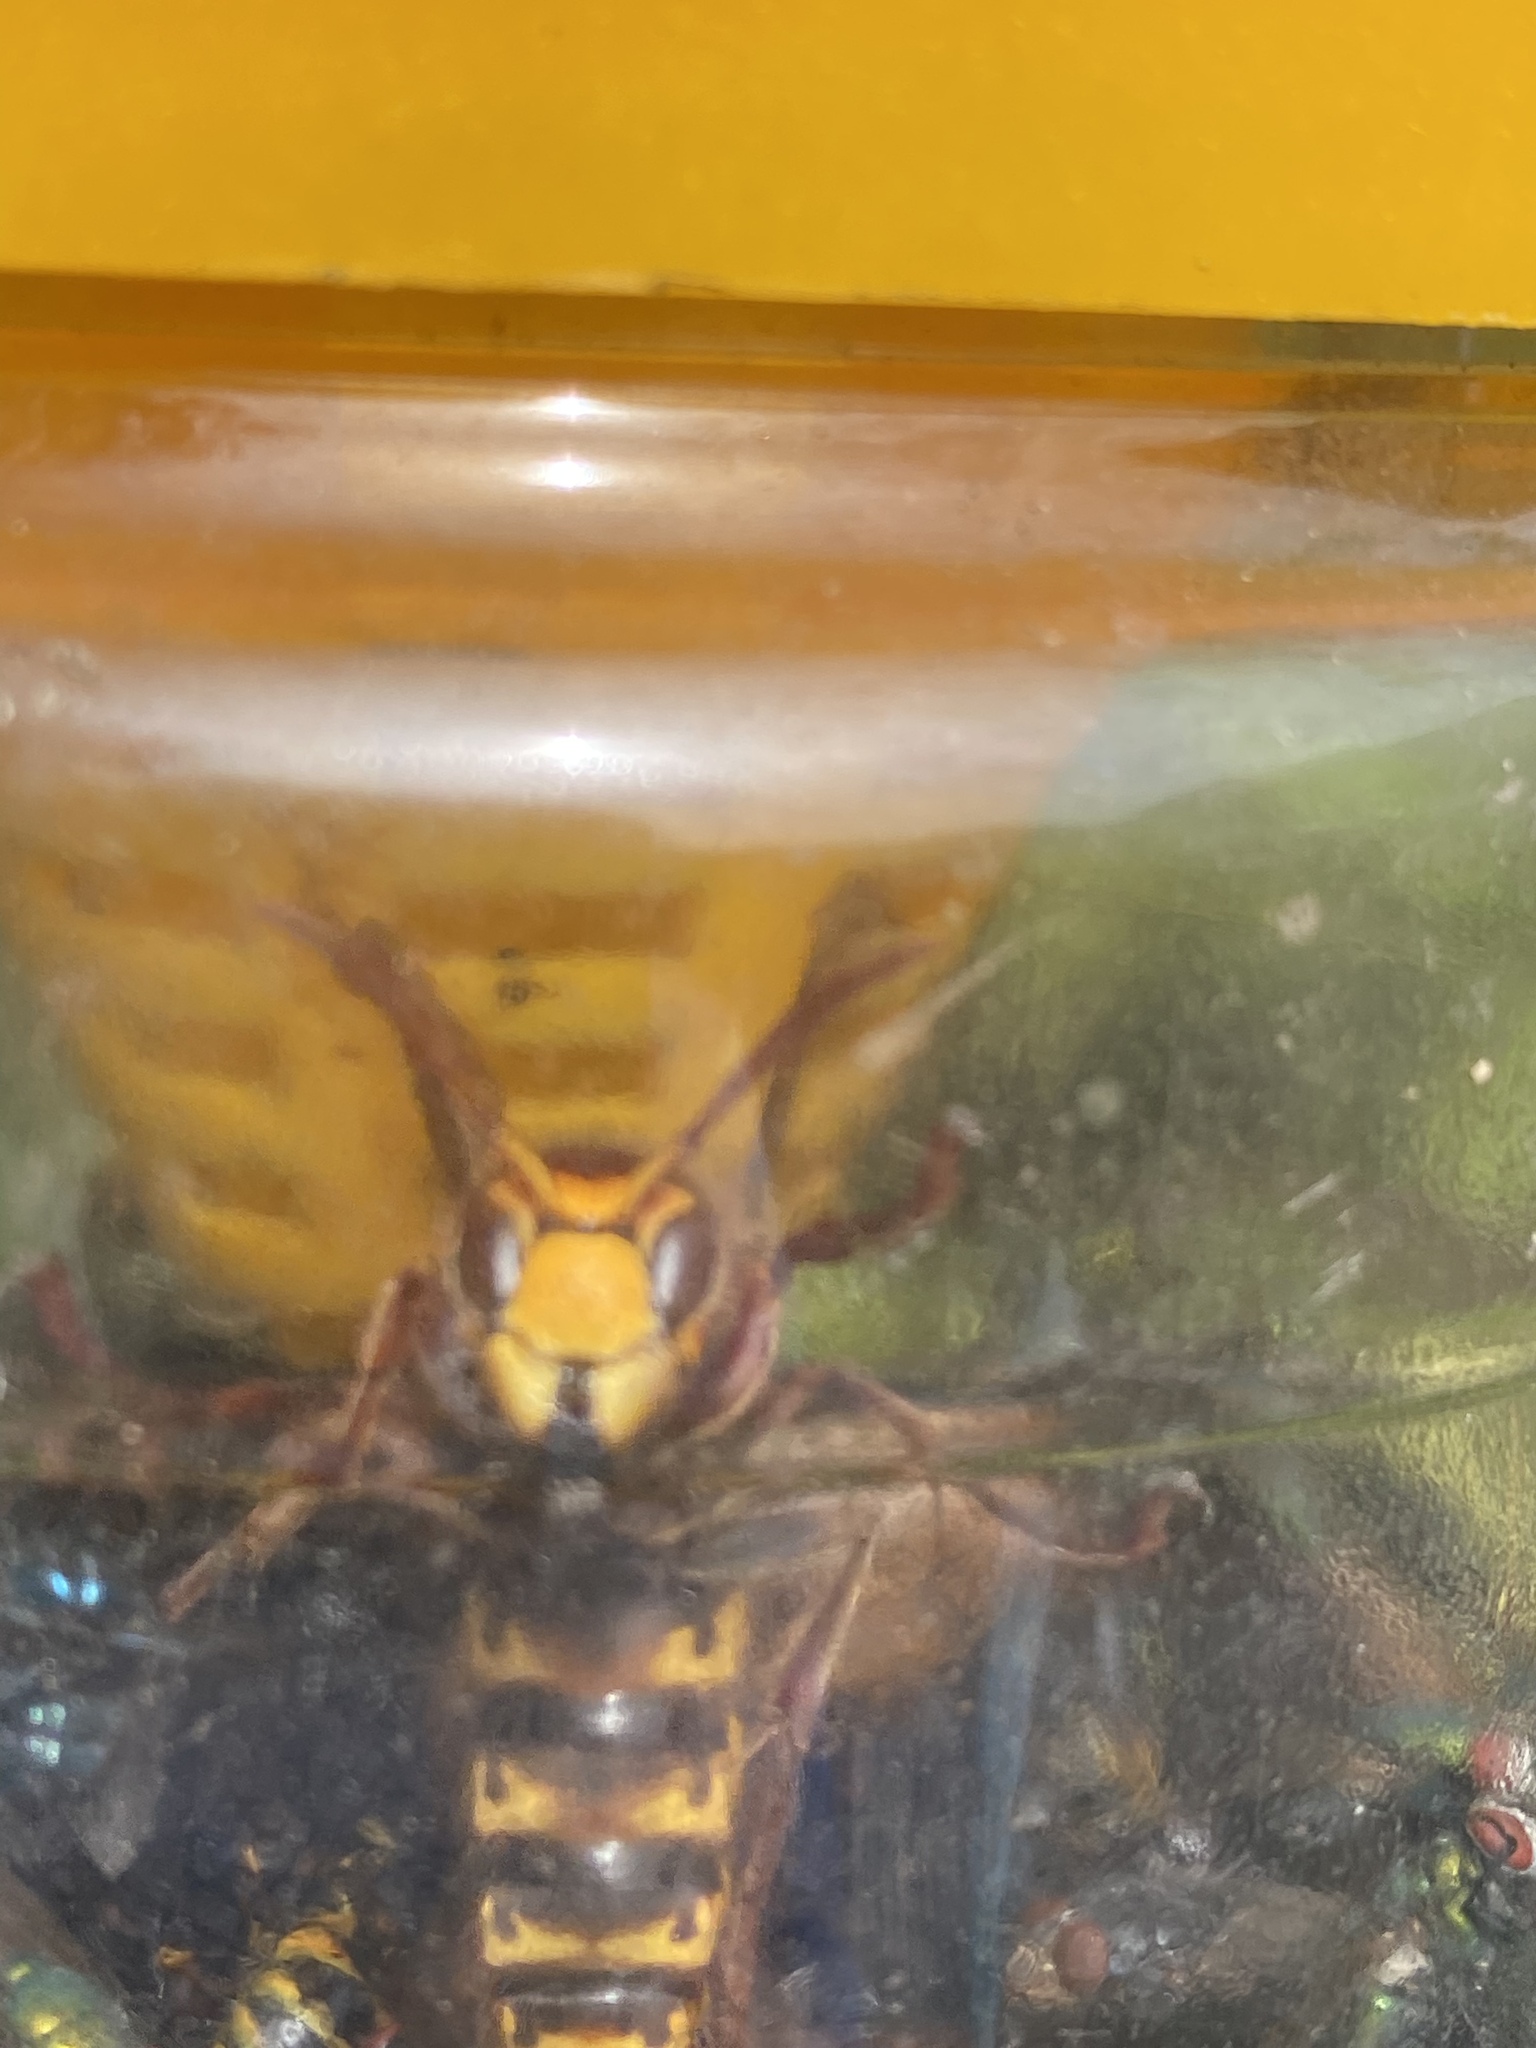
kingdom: Animalia
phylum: Arthropoda
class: Insecta
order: Hymenoptera
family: Vespidae
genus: Vespa
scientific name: Vespa crabro
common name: Hornet
